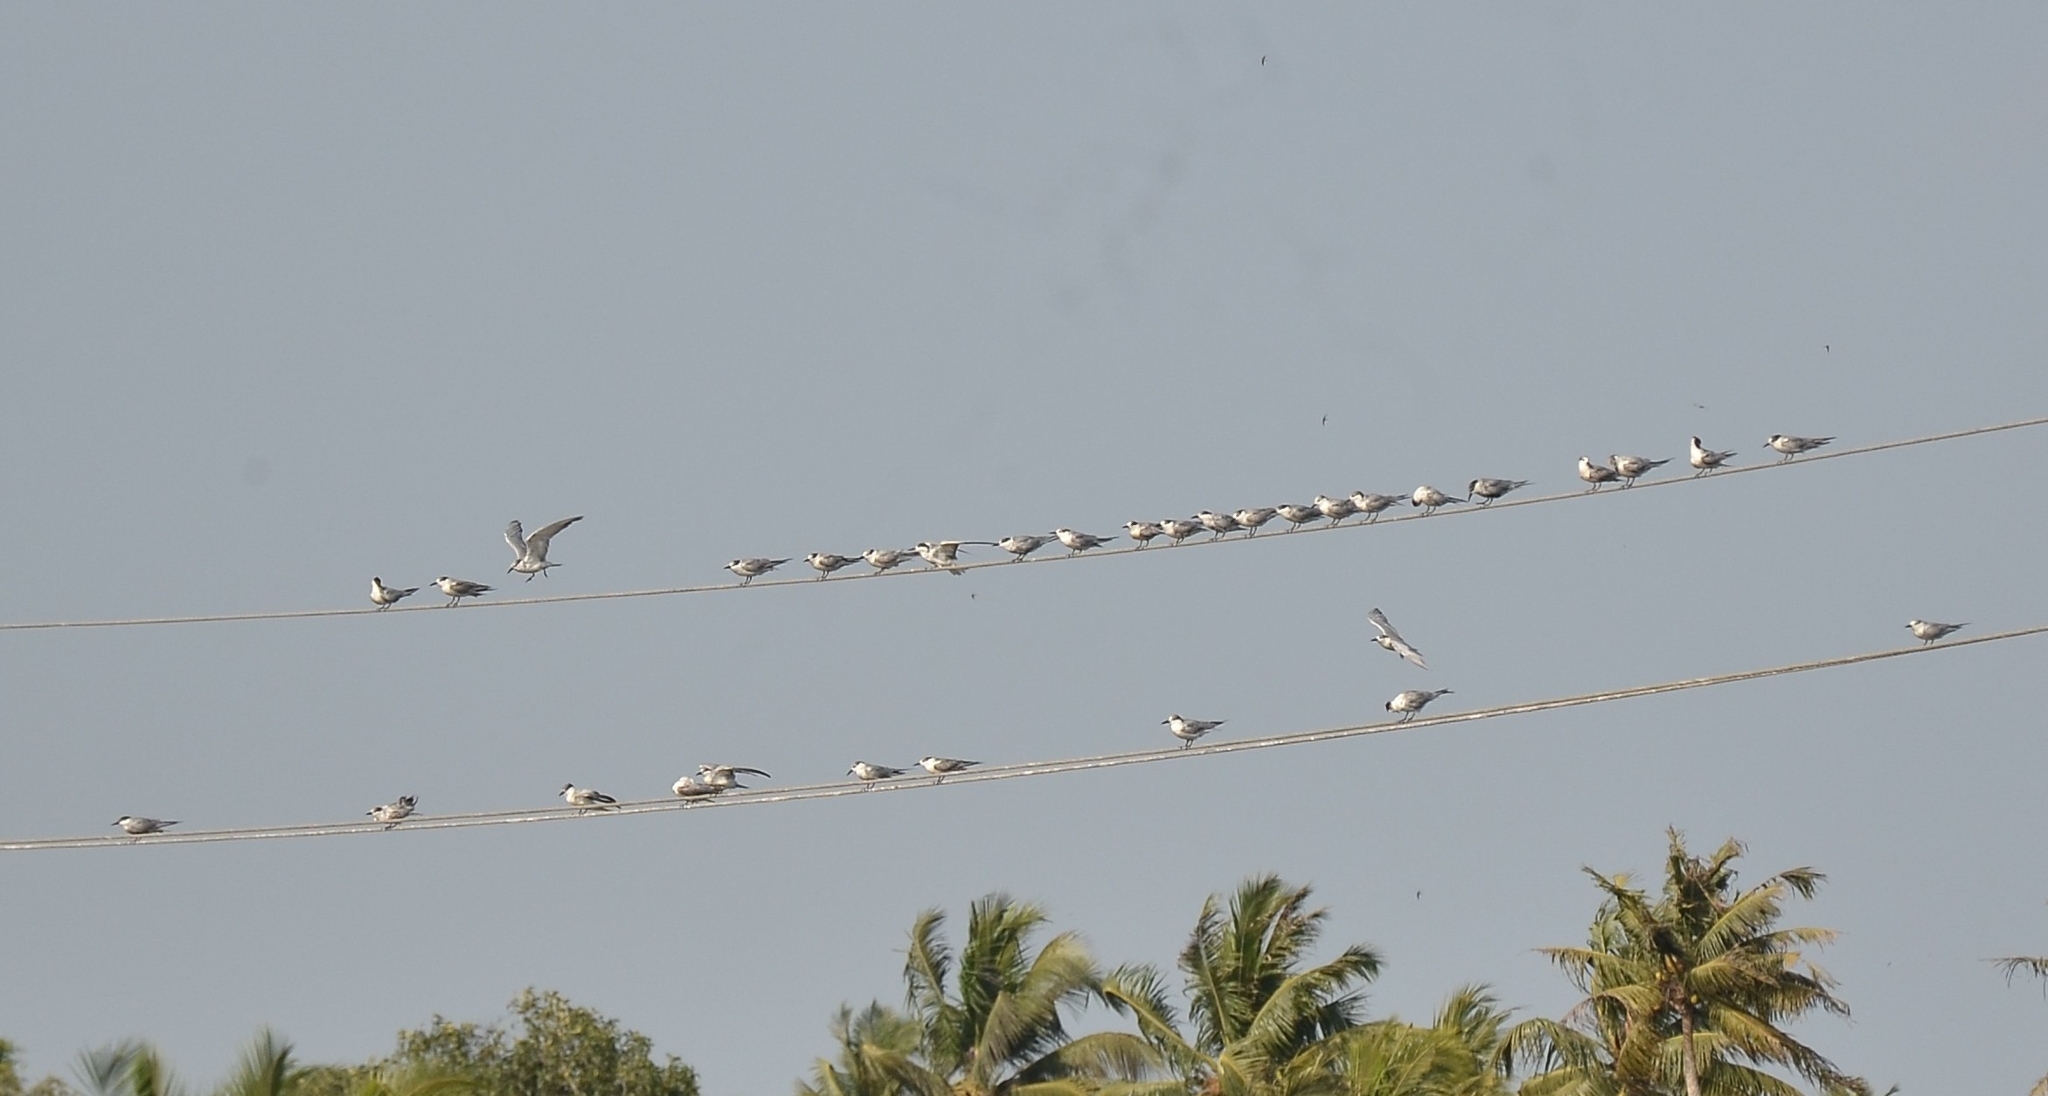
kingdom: Animalia
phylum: Chordata
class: Aves
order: Charadriiformes
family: Laridae
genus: Chlidonias
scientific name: Chlidonias hybrida
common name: Whiskered tern
